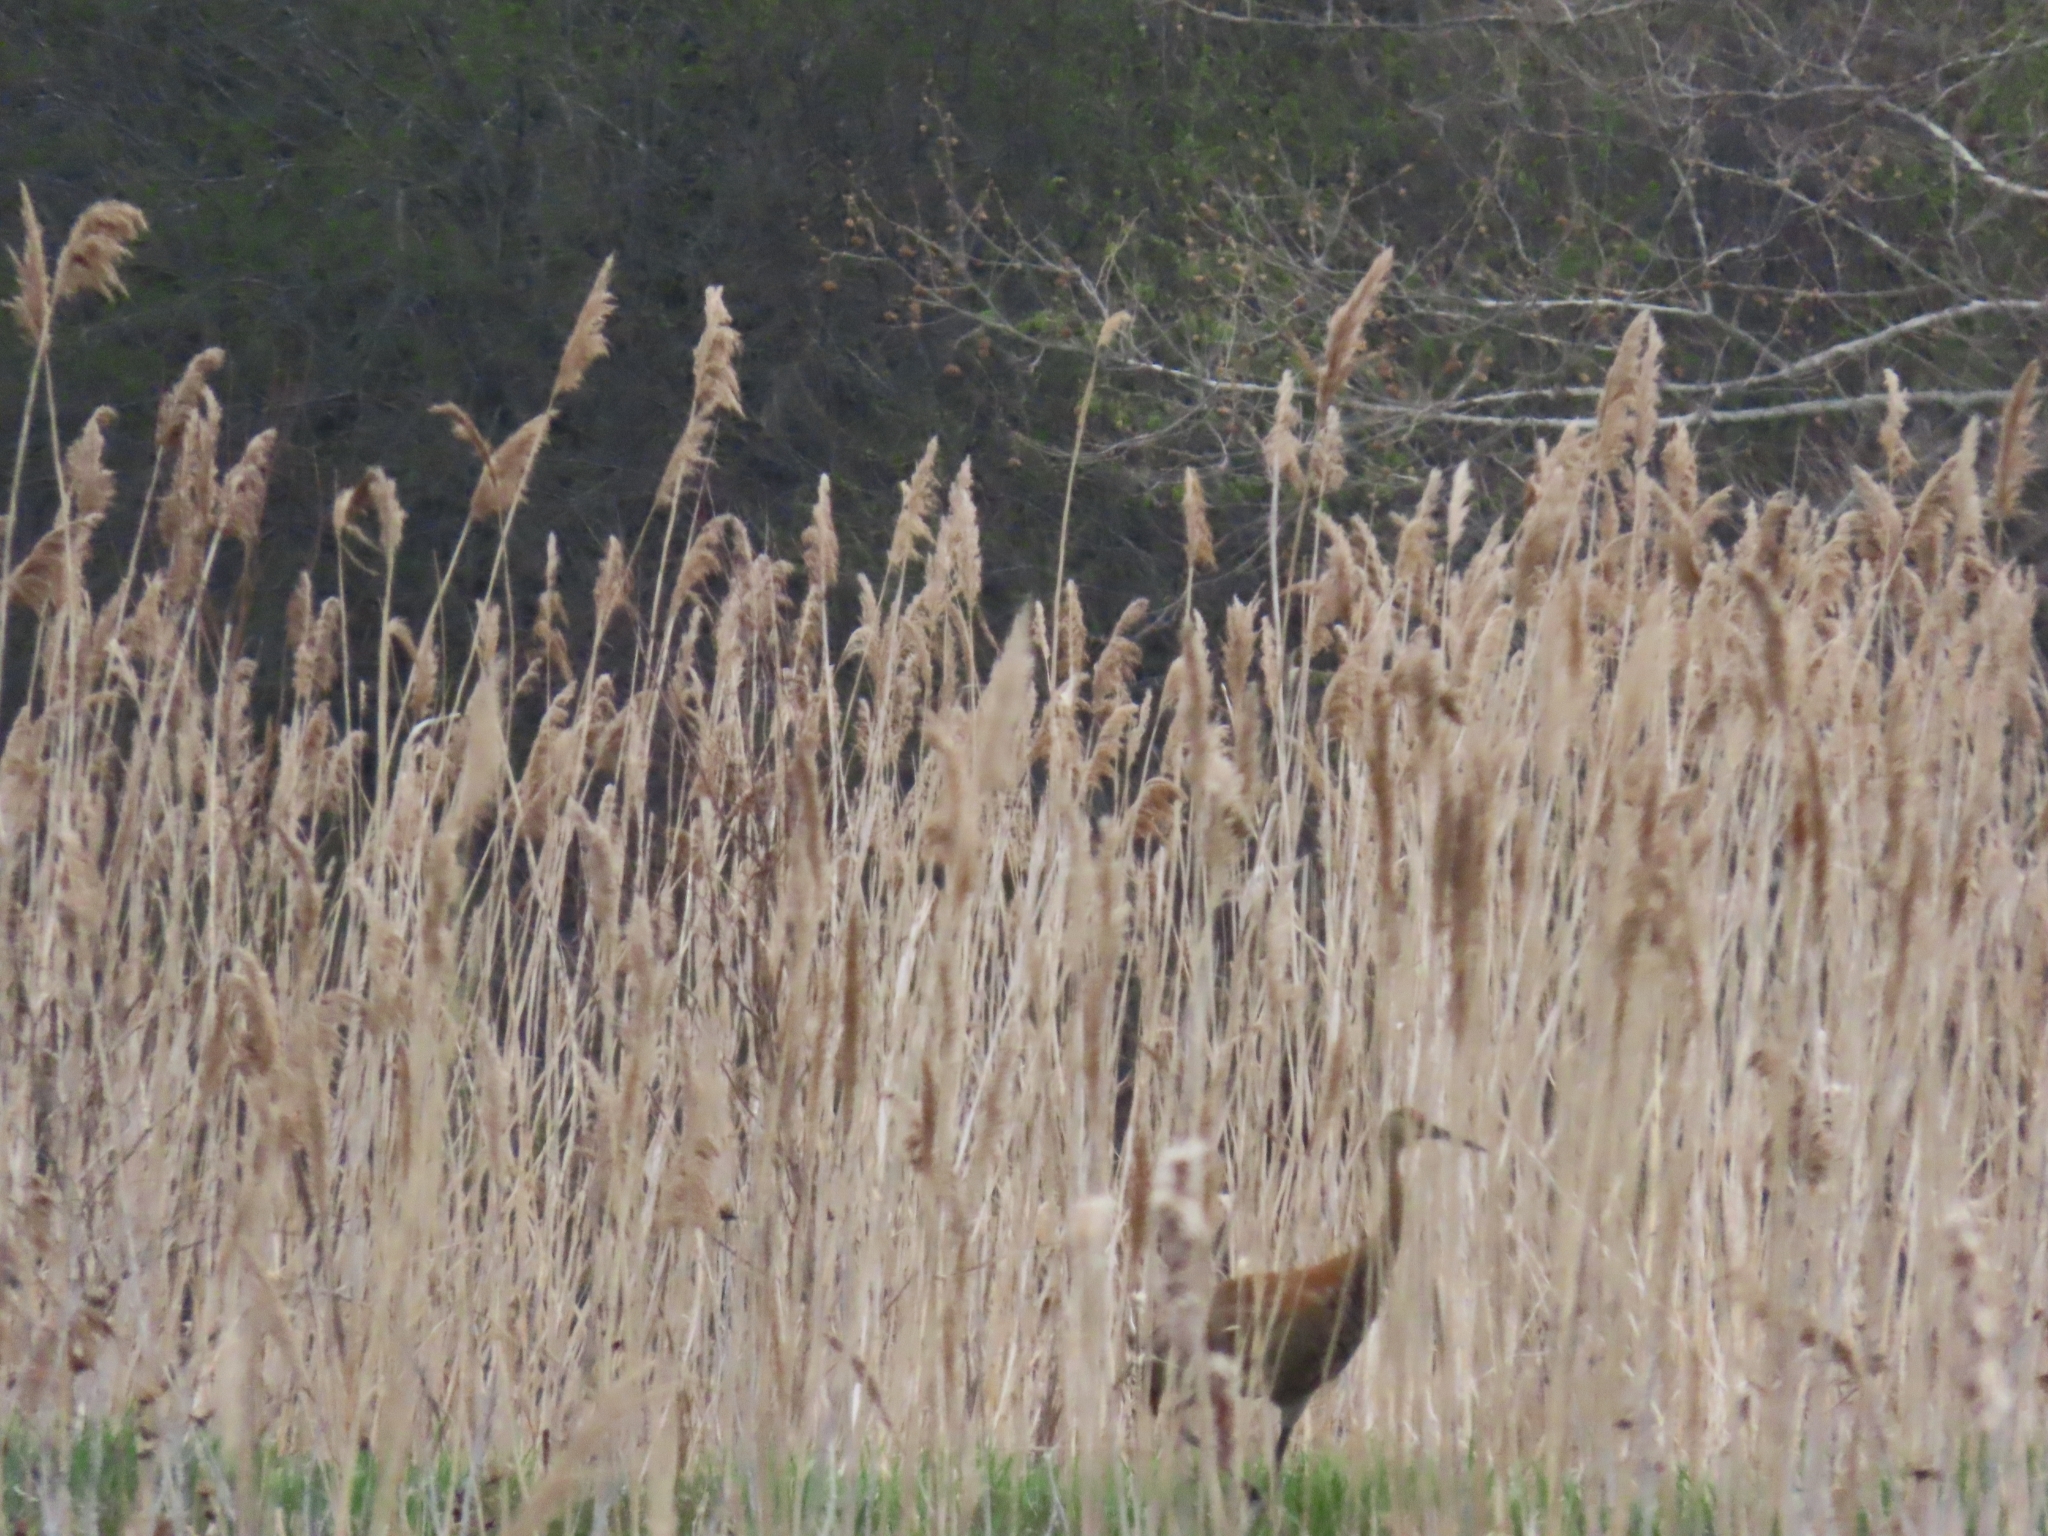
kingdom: Animalia
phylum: Chordata
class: Aves
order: Gruiformes
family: Gruidae
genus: Grus
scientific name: Grus canadensis
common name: Sandhill crane
